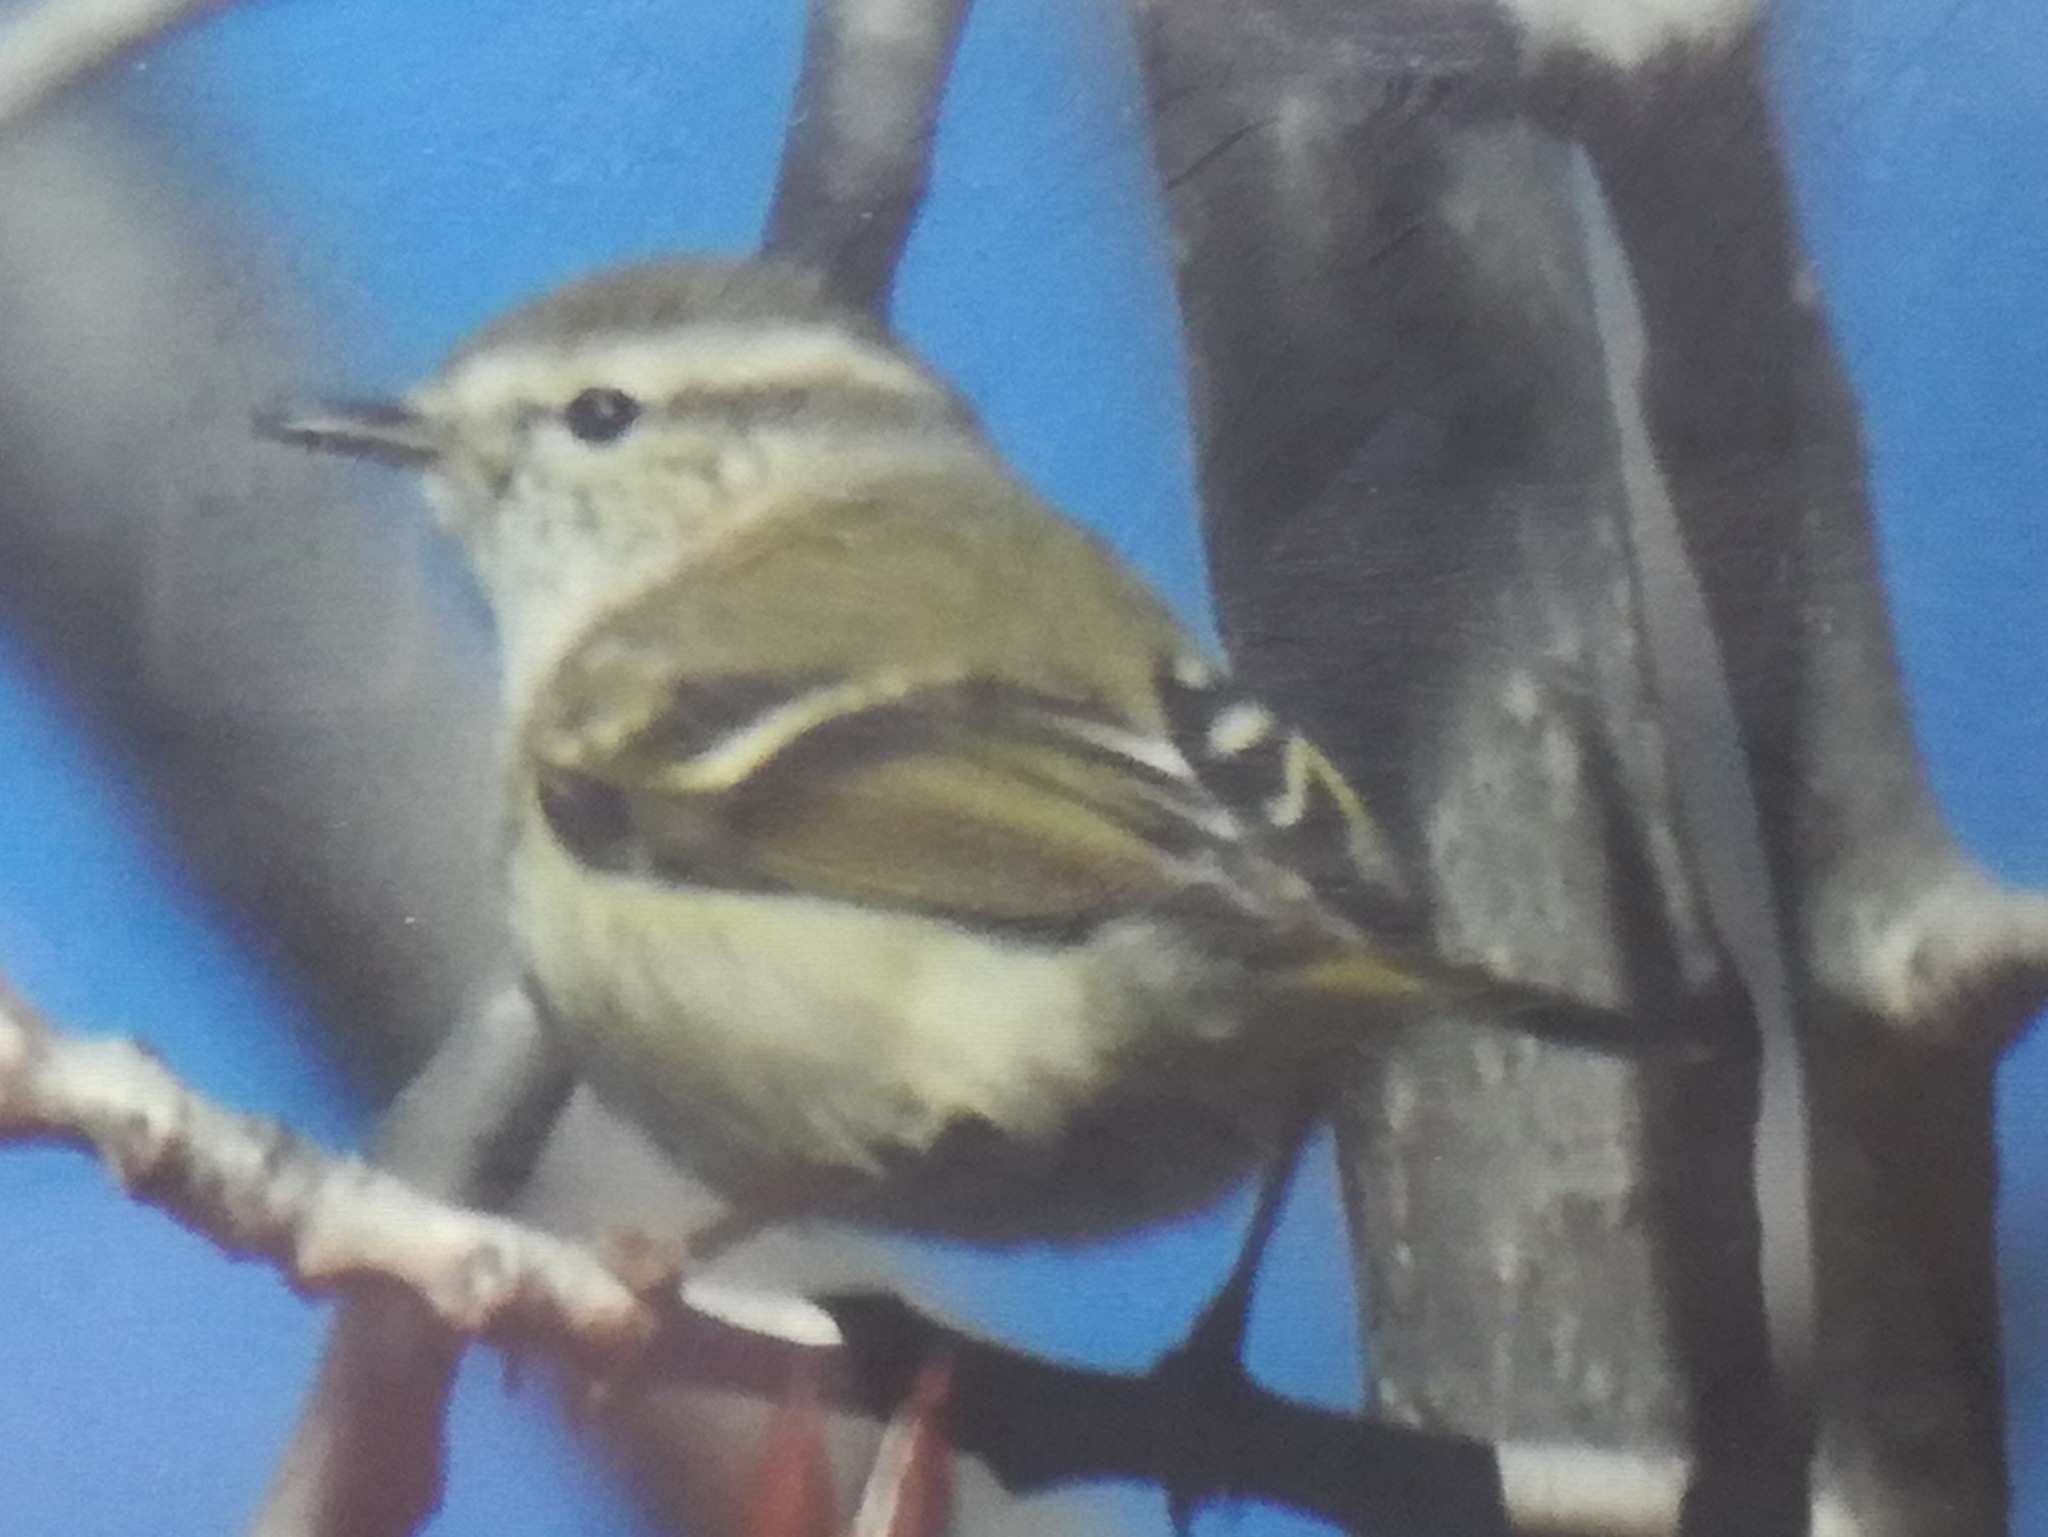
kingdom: Animalia
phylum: Chordata
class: Aves
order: Passeriformes
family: Phylloscopidae
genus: Phylloscopus
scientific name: Phylloscopus humei
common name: Hume's leaf warbler
